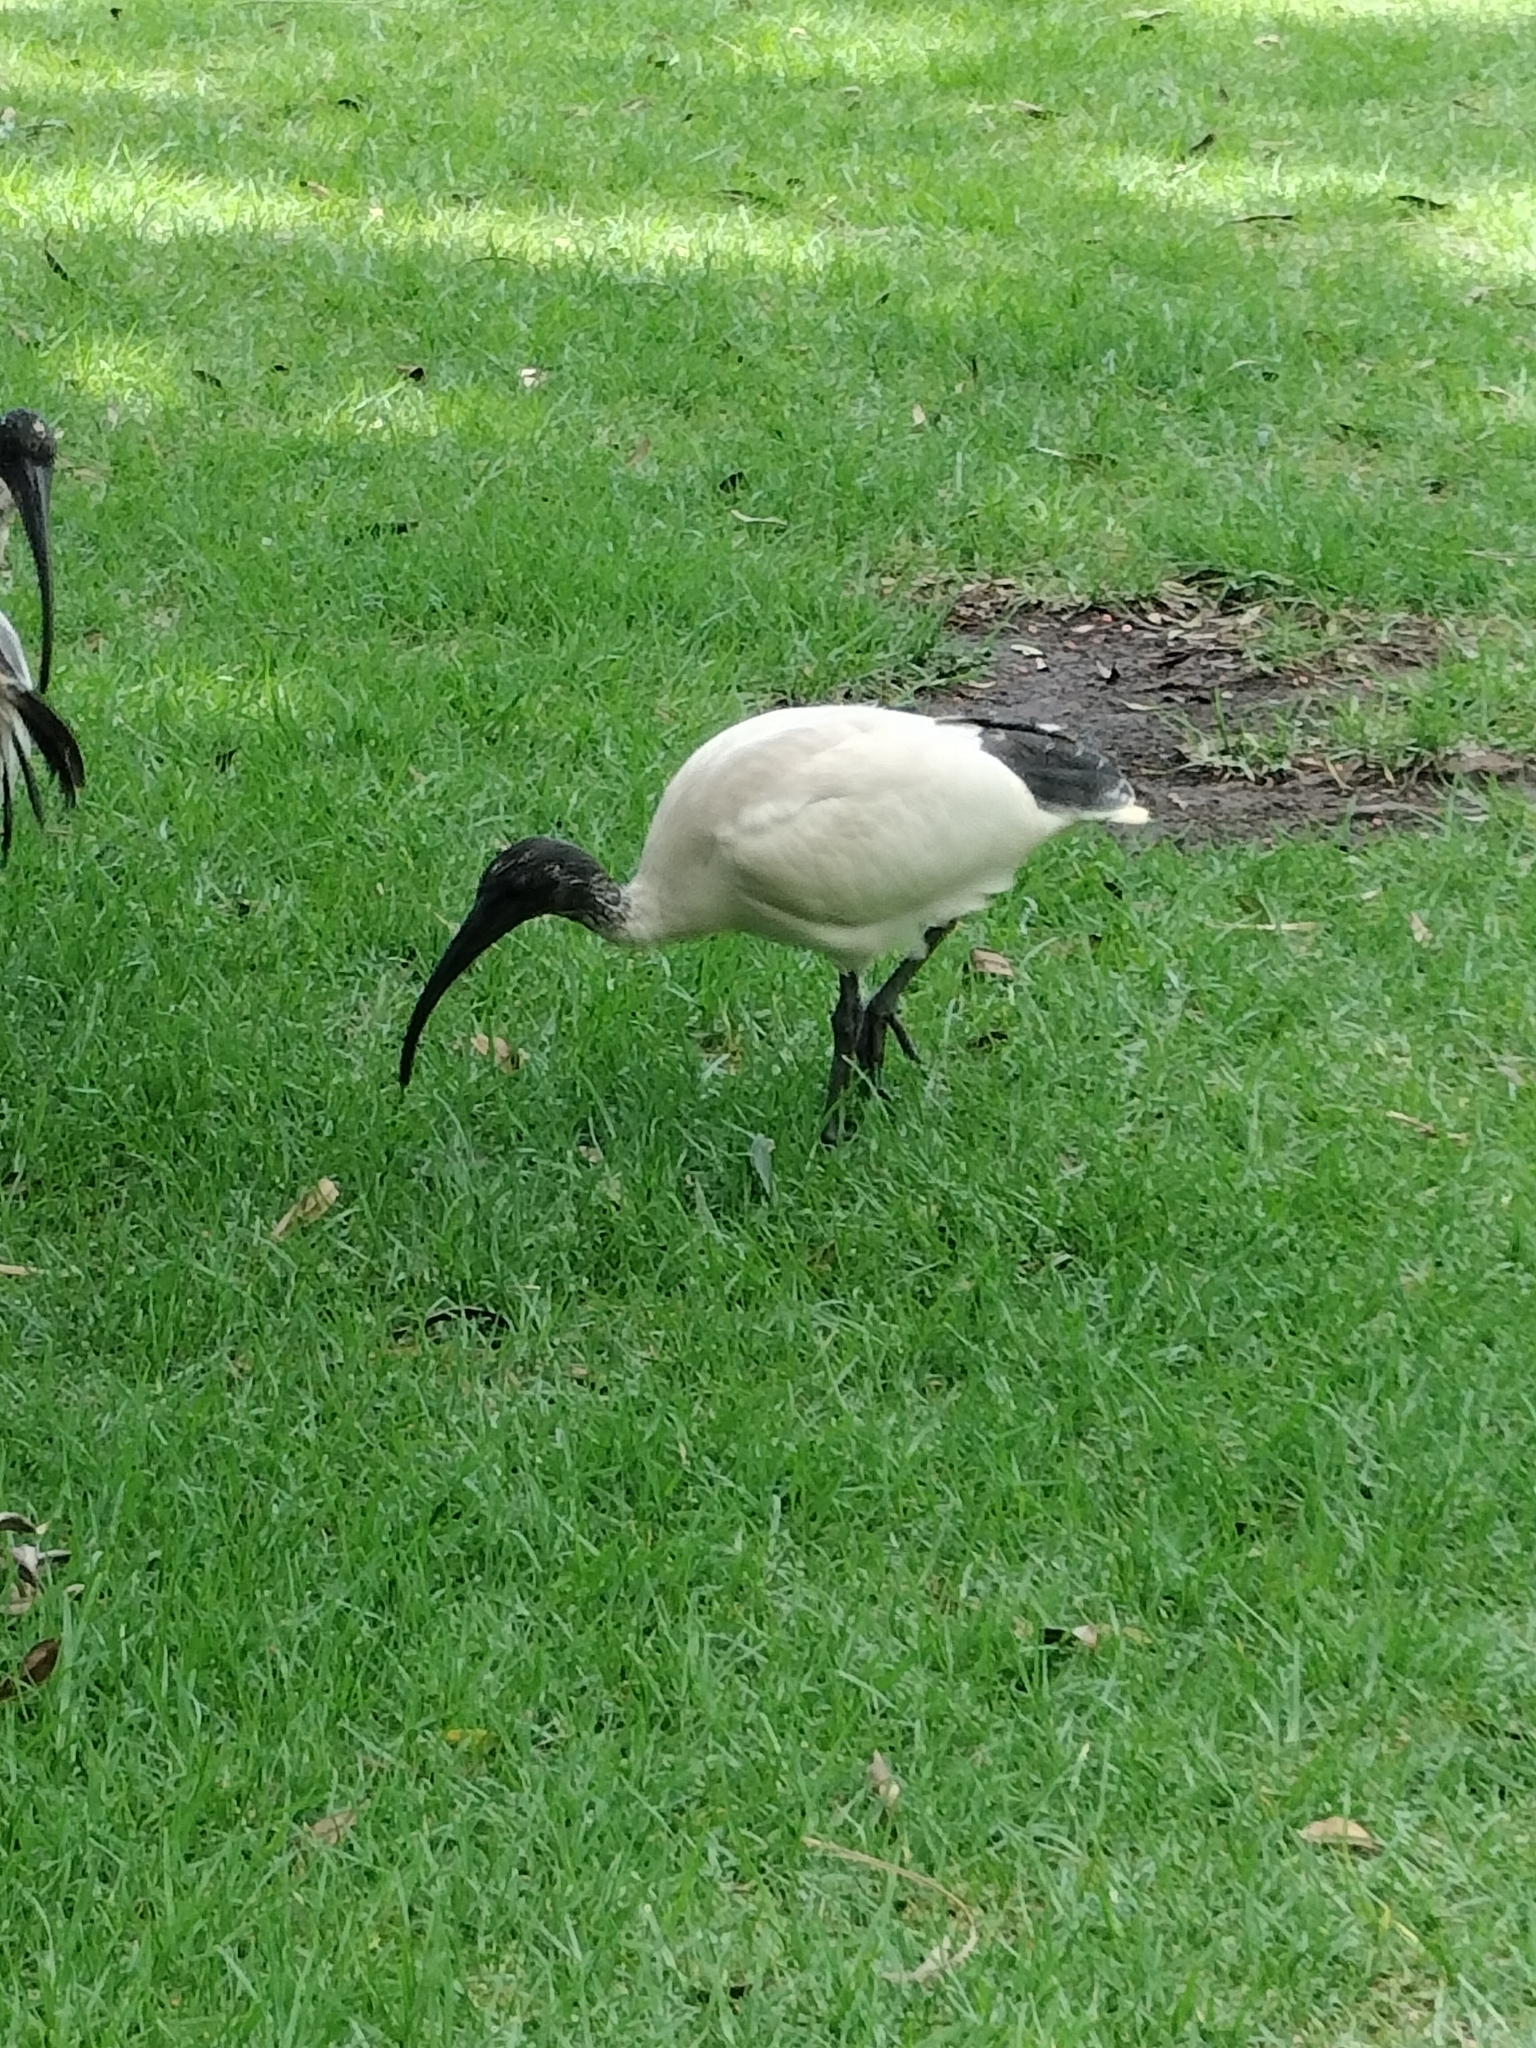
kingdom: Animalia
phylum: Chordata
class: Aves
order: Pelecaniformes
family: Threskiornithidae
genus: Threskiornis
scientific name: Threskiornis molucca
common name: Australian white ibis
